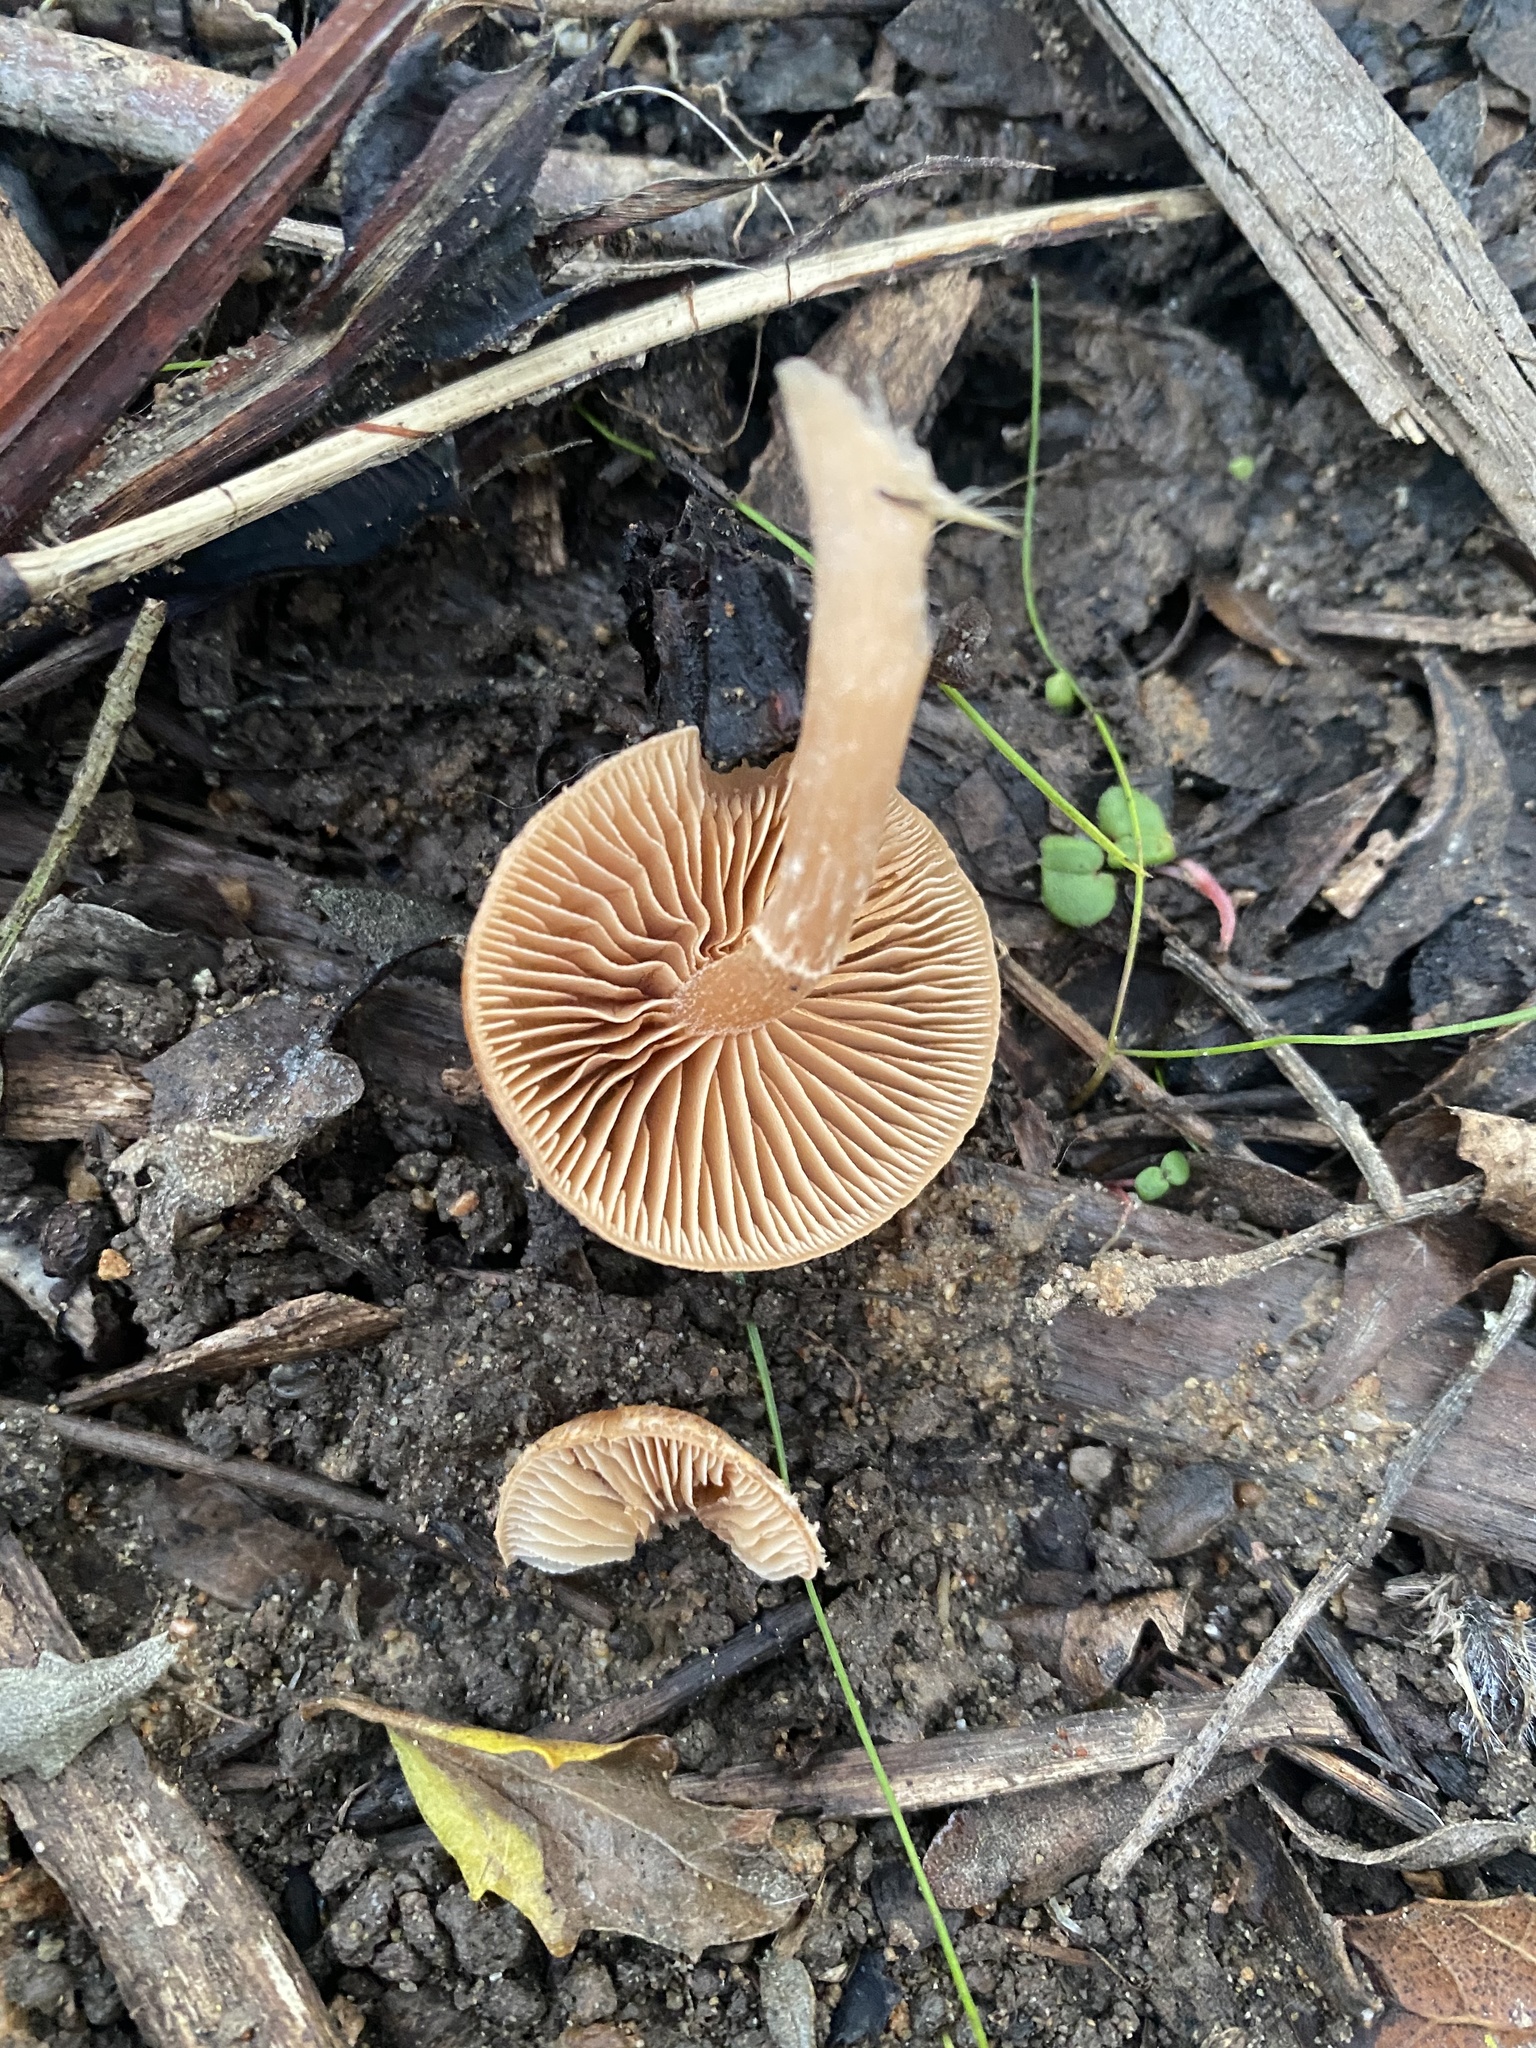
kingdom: Fungi
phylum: Basidiomycota
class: Agaricomycetes
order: Agaricales
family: Tubariaceae
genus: Tubaria
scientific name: Tubaria furfuracea
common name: Scurfy twiglet
